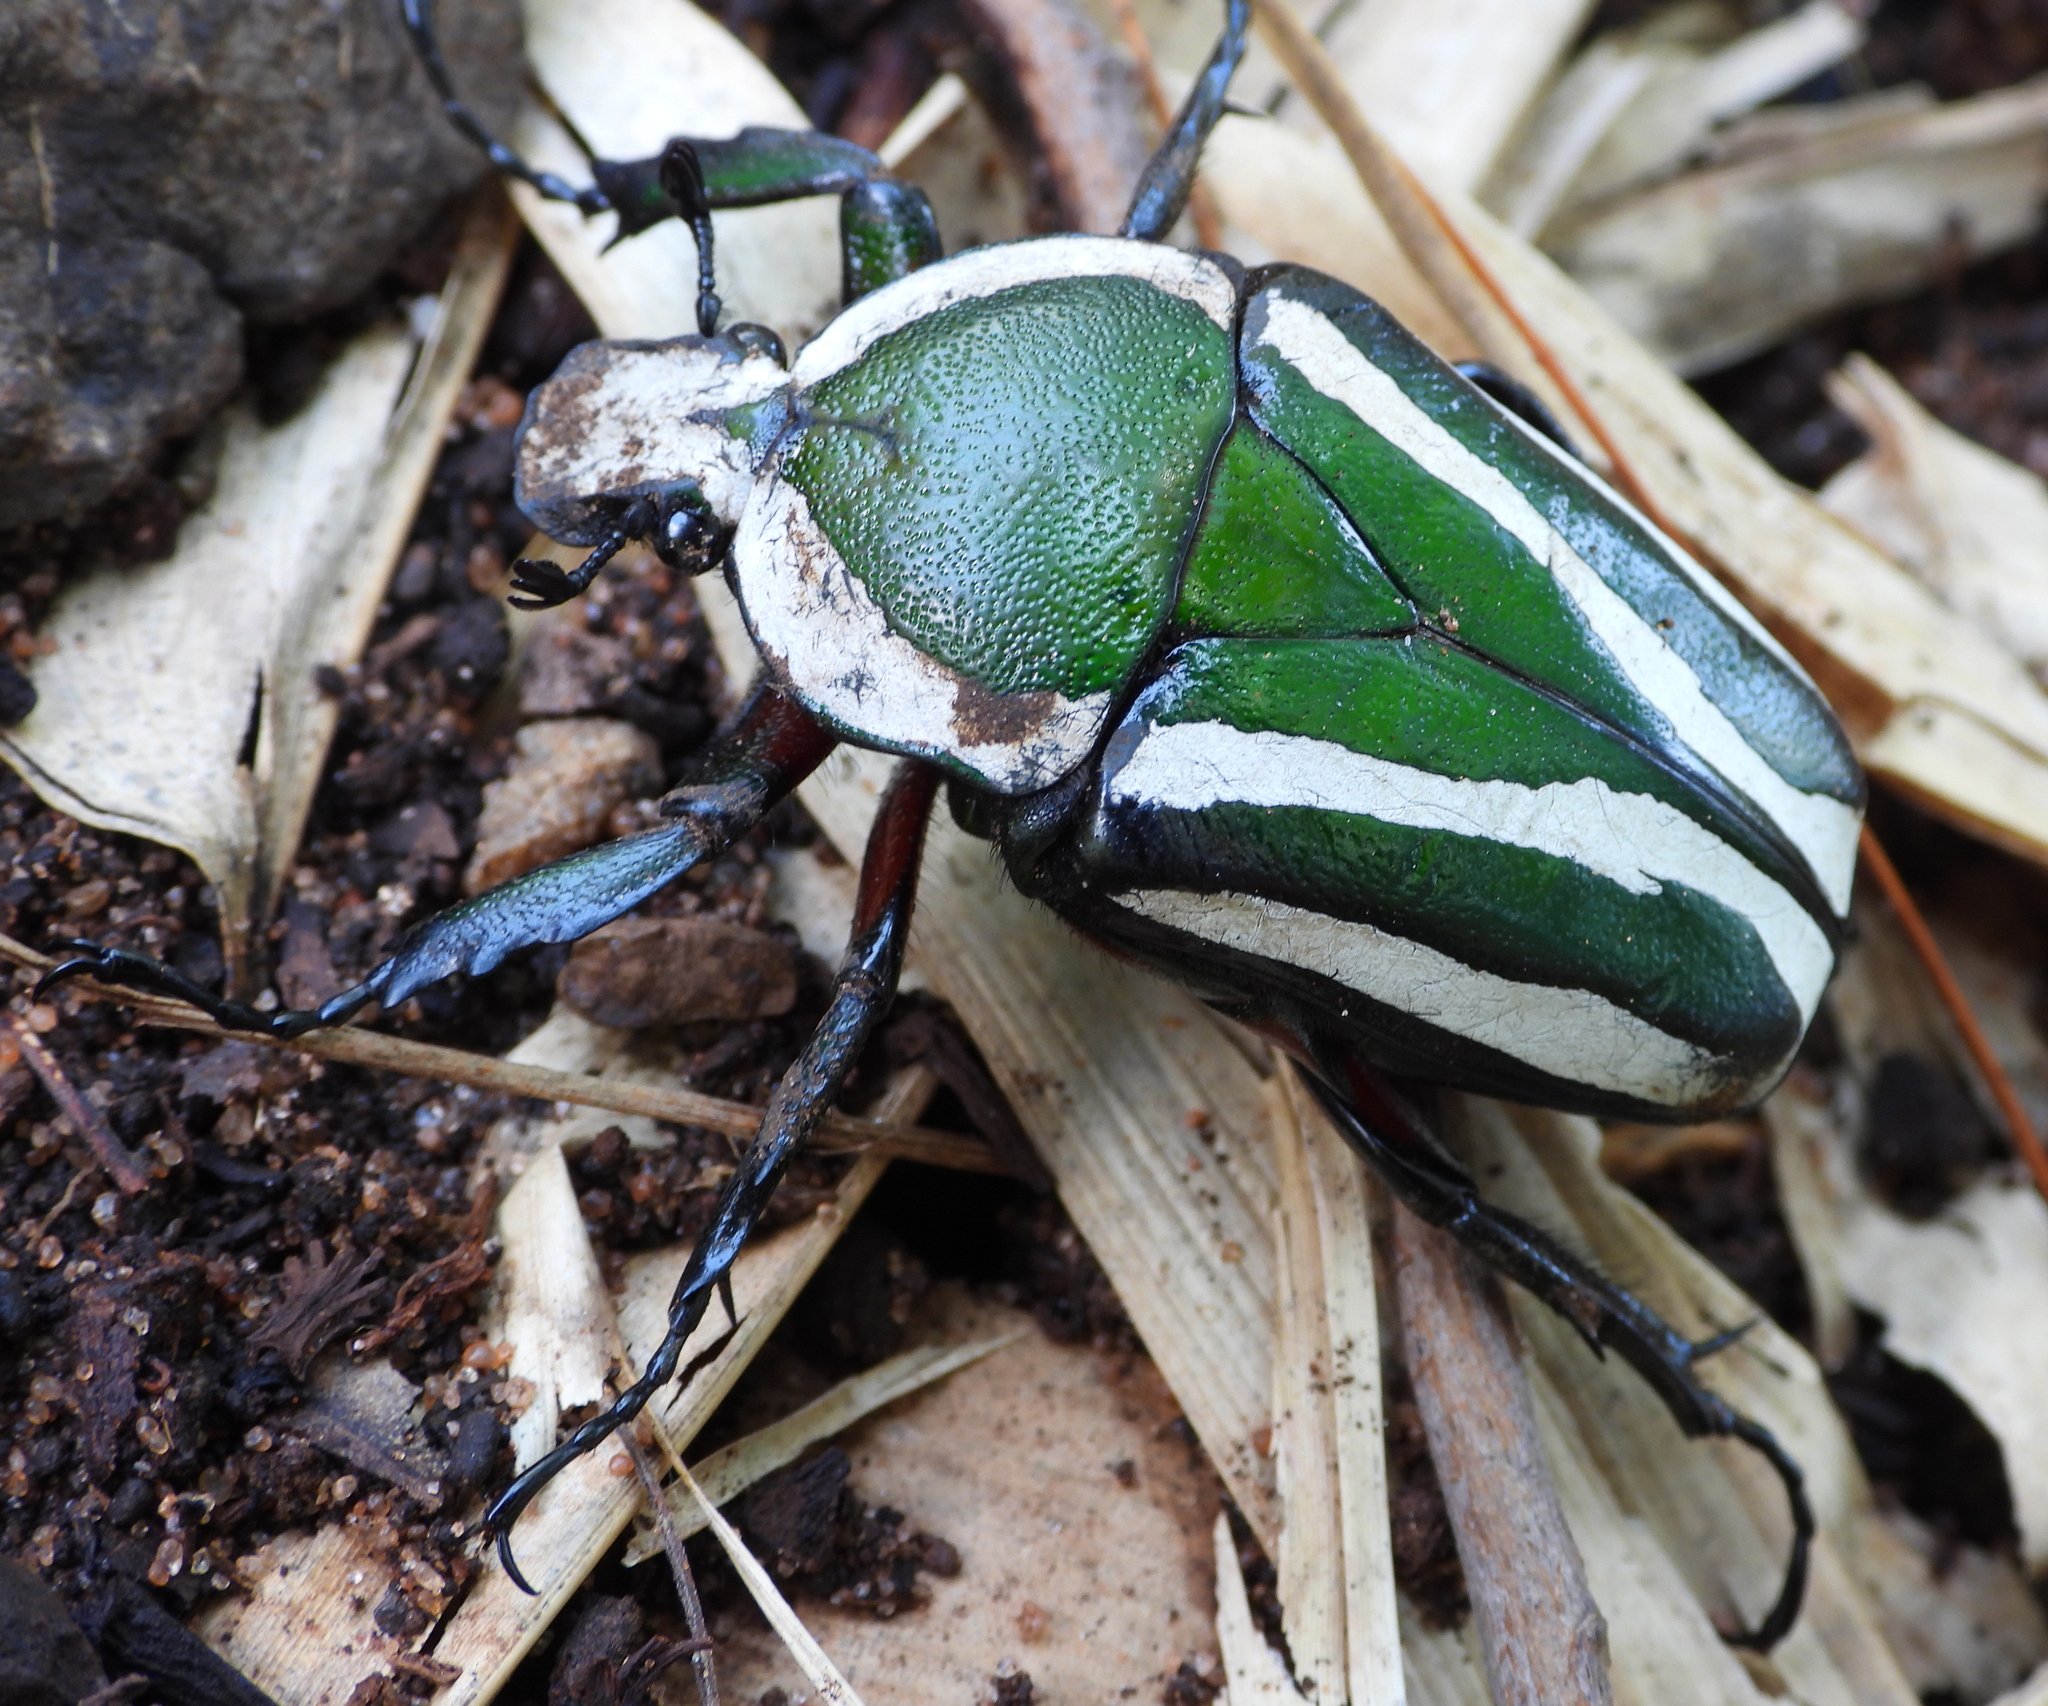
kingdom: Animalia
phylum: Arthropoda
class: Insecta
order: Coleoptera
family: Scarabaeidae
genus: Dicronorhina
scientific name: Dicronorhina derbyana
